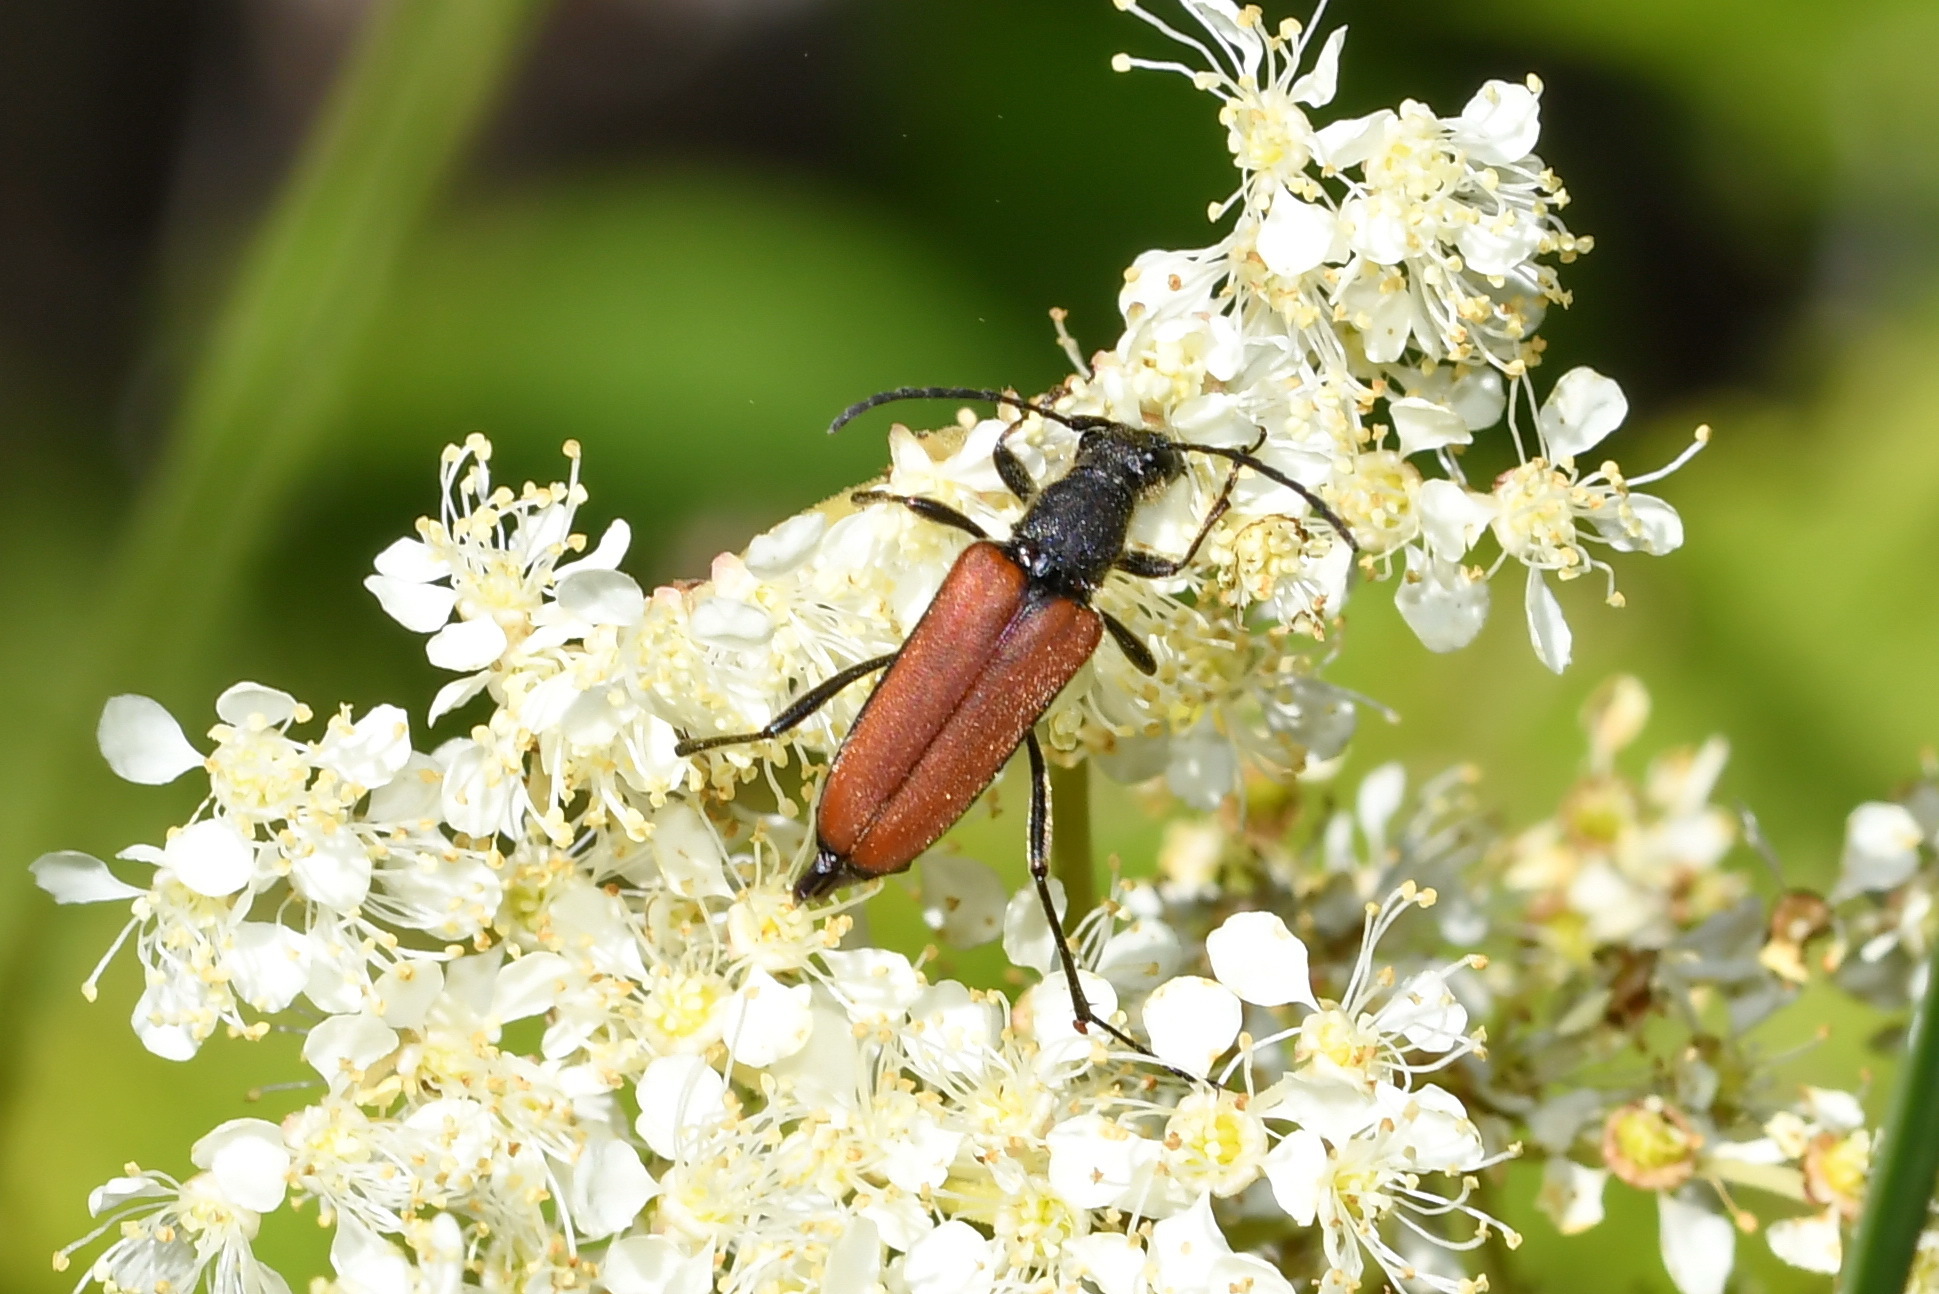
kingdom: Animalia
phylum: Arthropoda
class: Insecta
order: Coleoptera
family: Cerambycidae
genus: Anastrangalia
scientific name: Anastrangalia dubia
